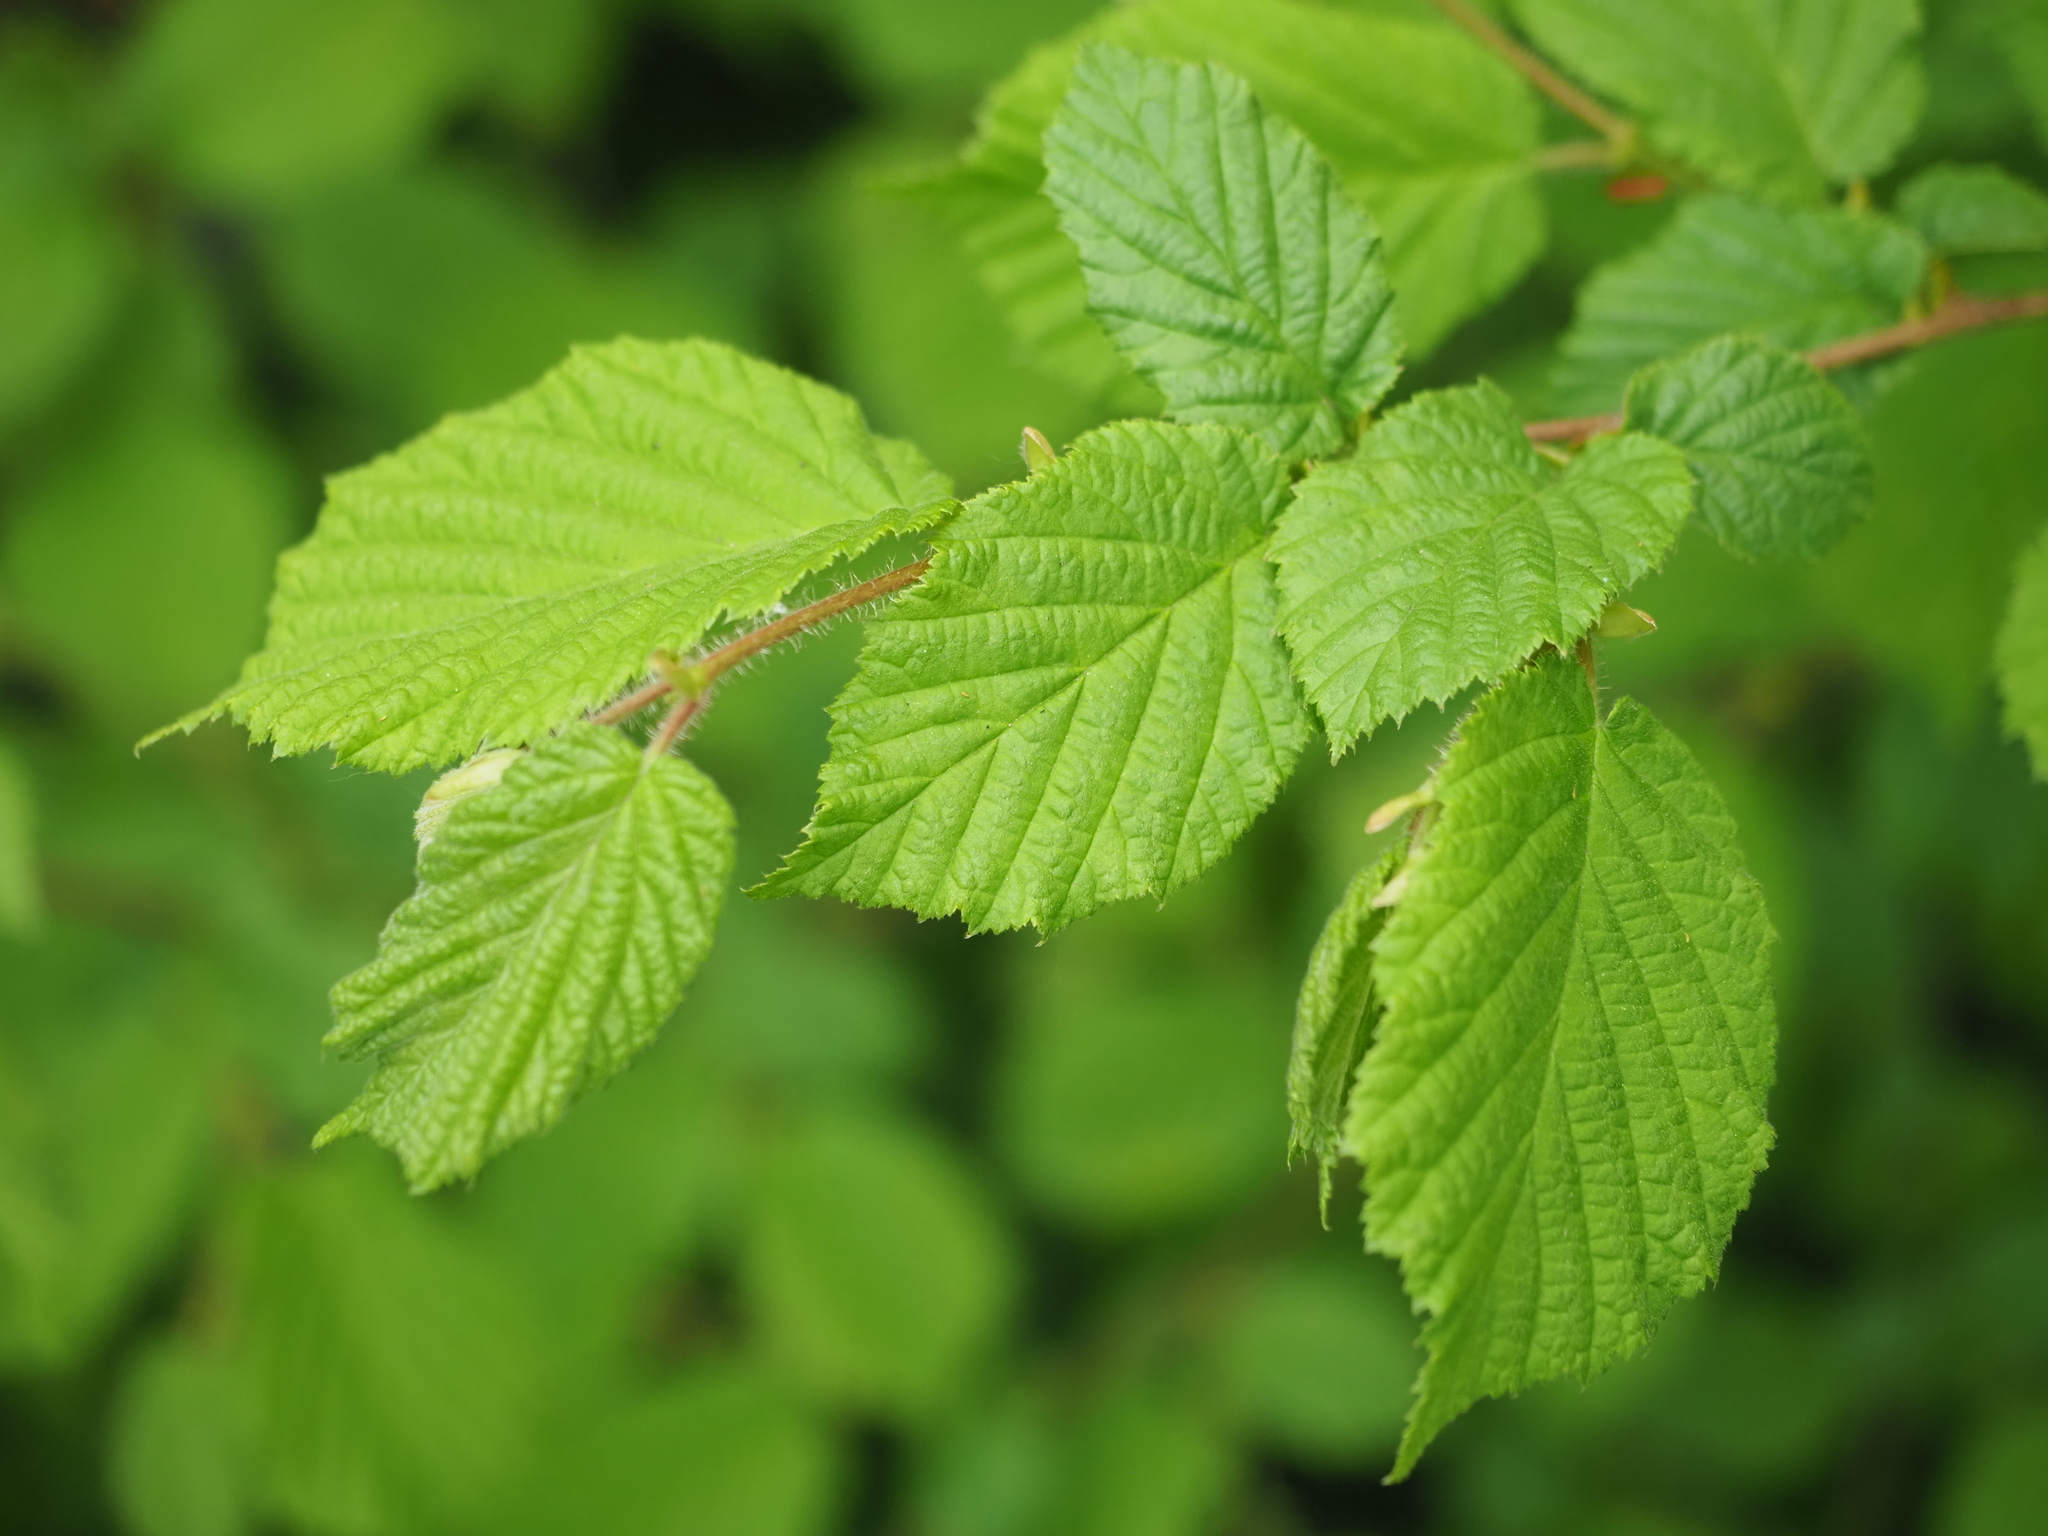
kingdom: Plantae
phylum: Tracheophyta
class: Magnoliopsida
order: Fagales
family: Betulaceae
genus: Corylus
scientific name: Corylus avellana
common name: European hazel
